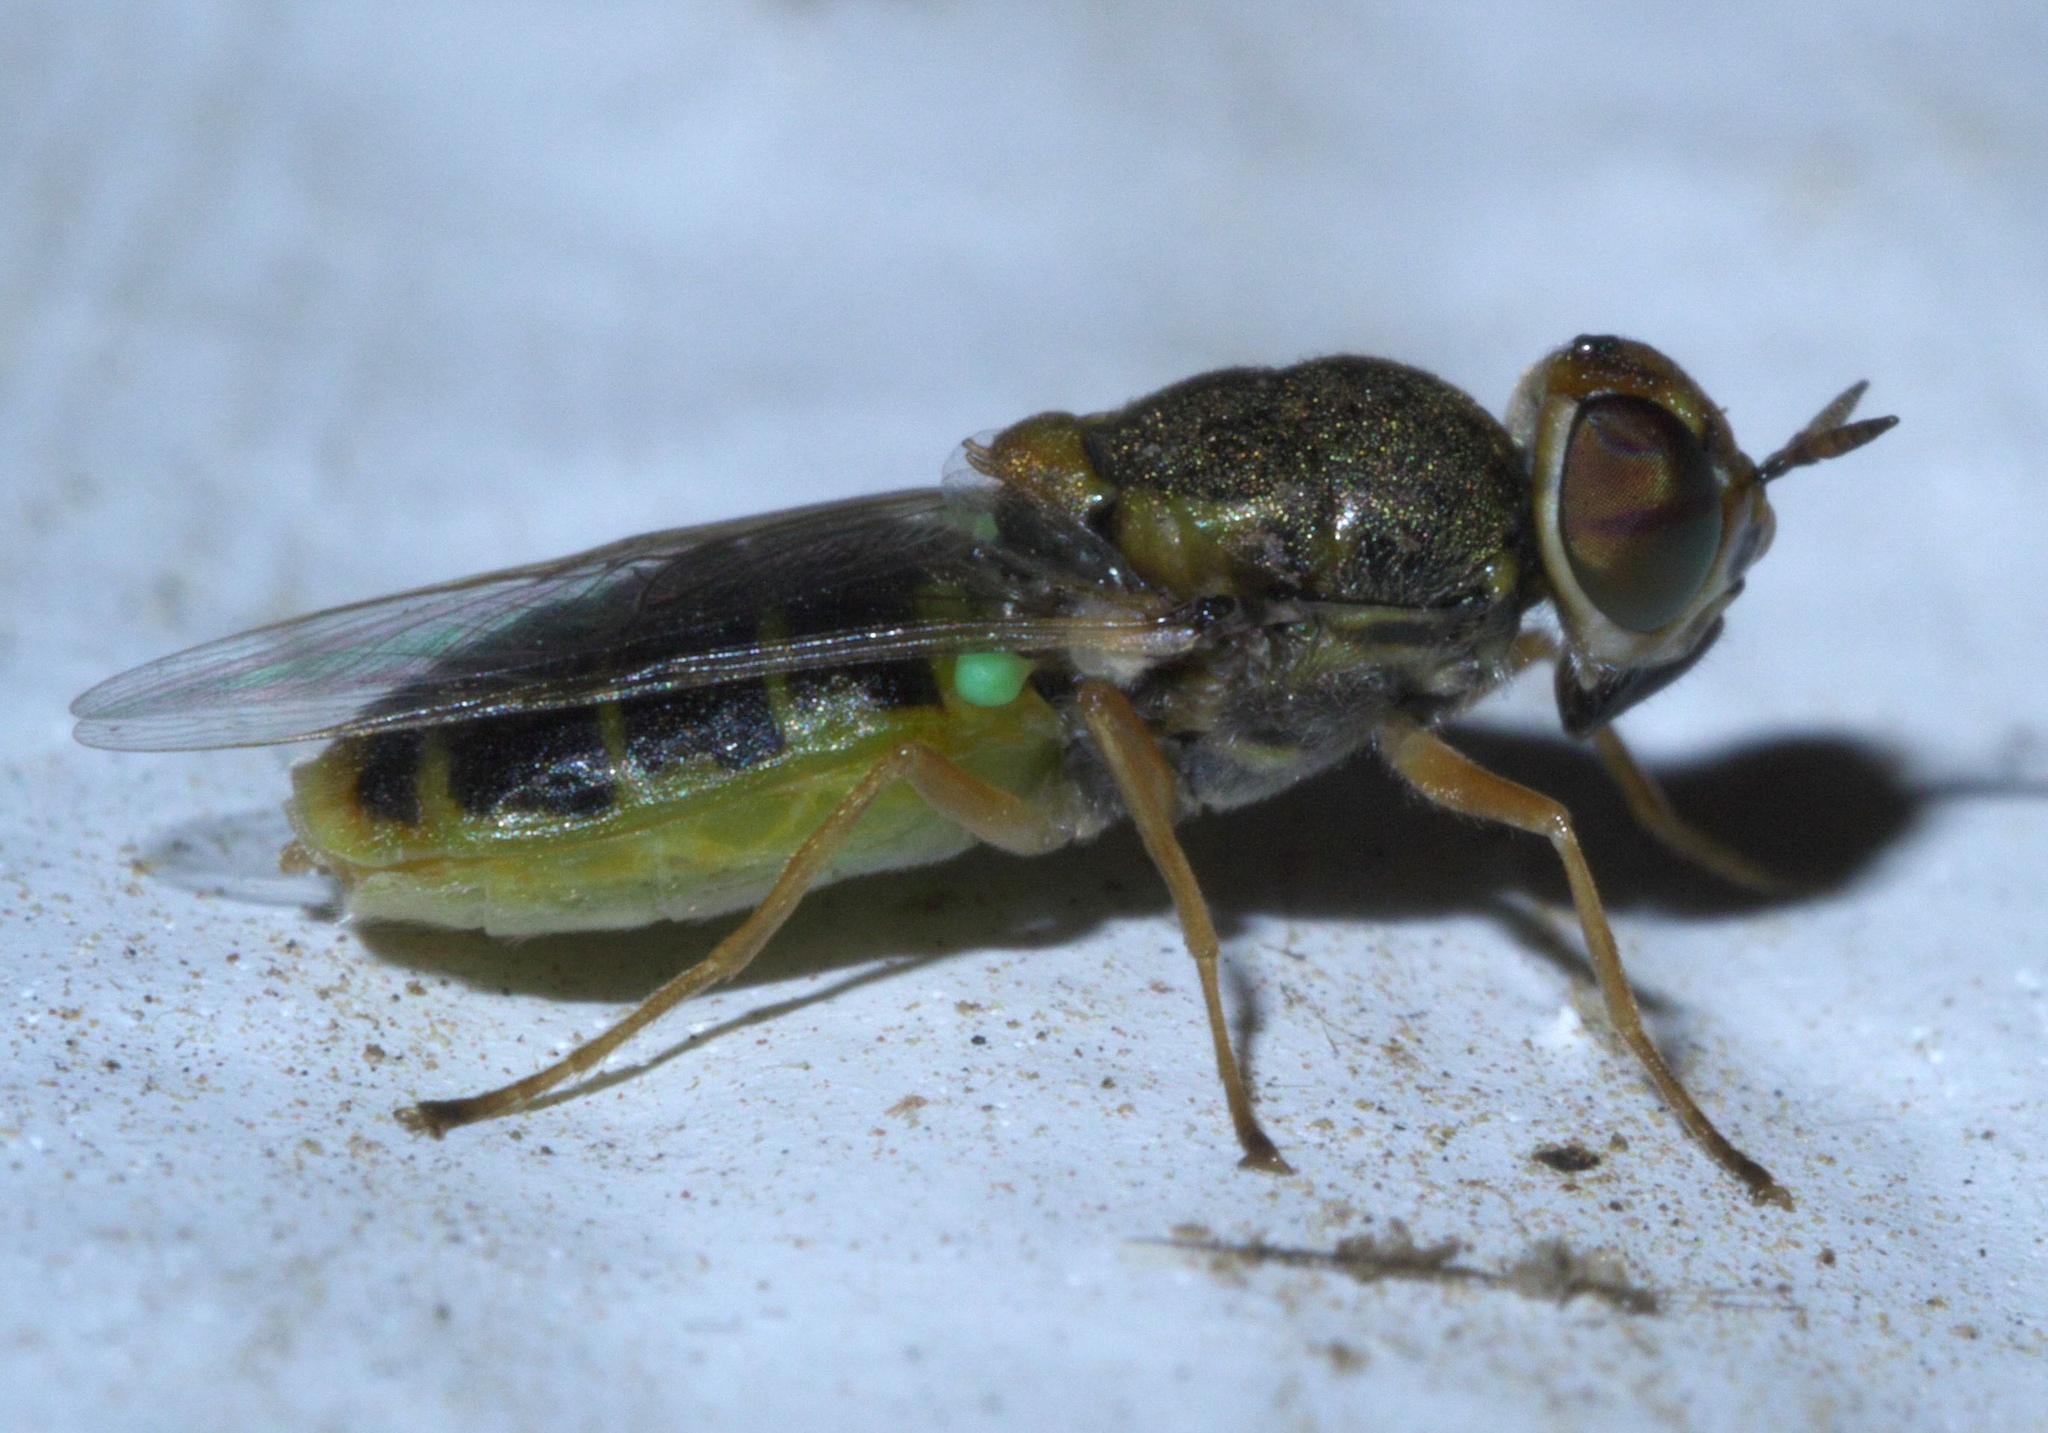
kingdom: Animalia
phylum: Arthropoda
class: Insecta
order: Diptera
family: Stratiomyidae
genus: Hedriodiscus
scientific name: Hedriodiscus vertebratus
